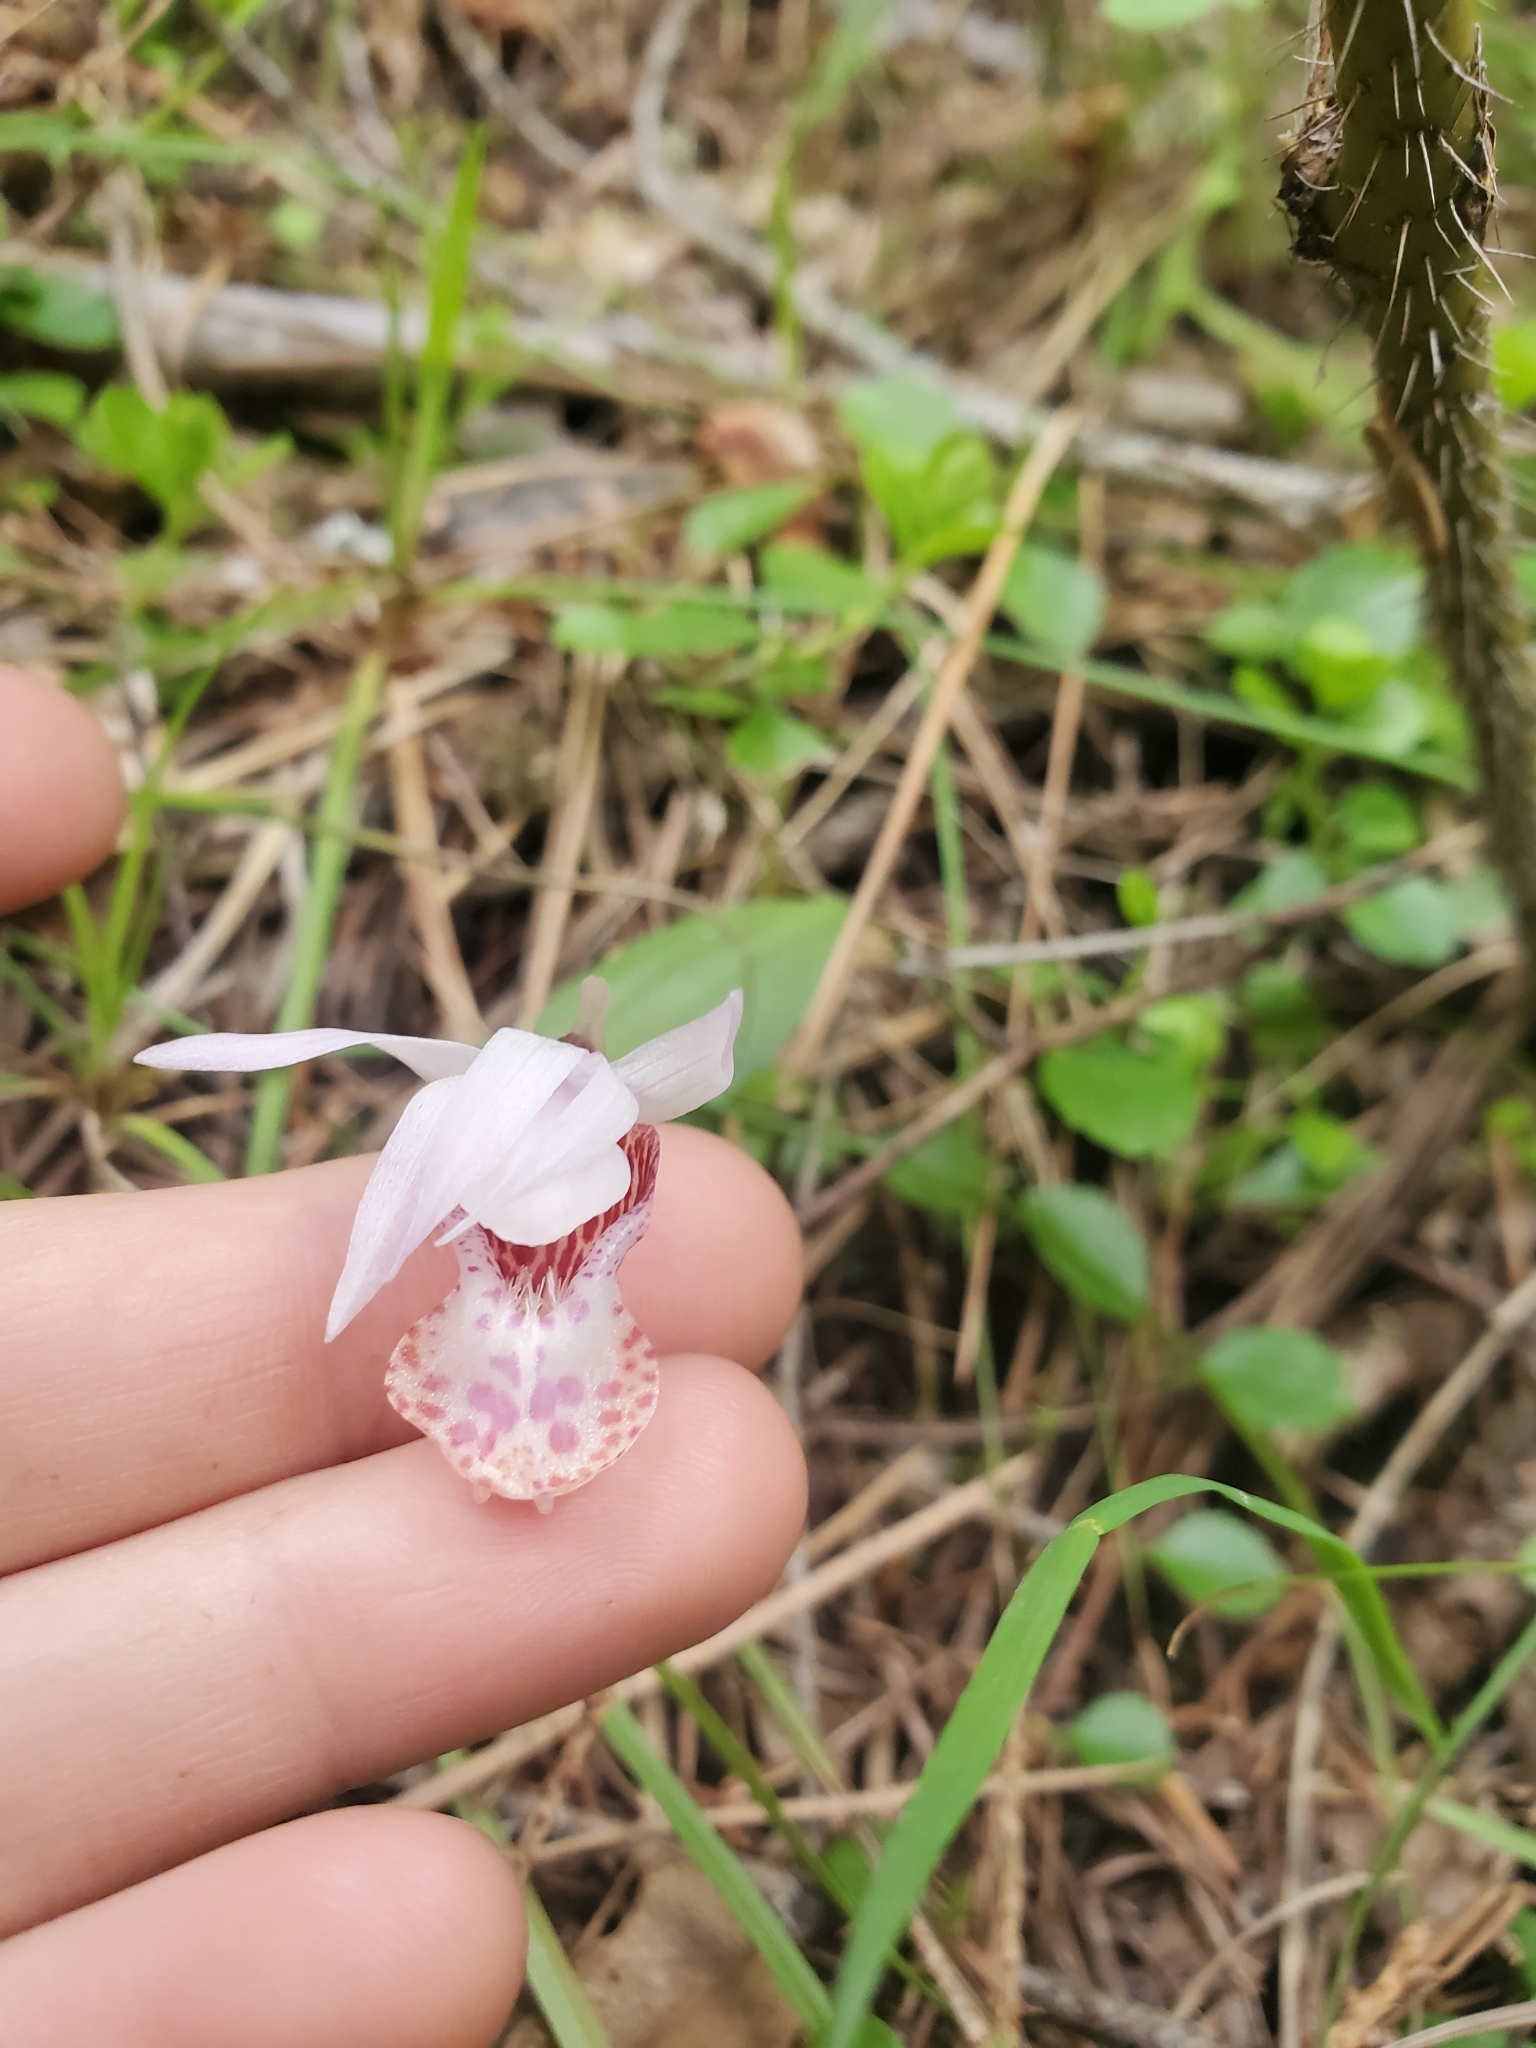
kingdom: Plantae
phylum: Tracheophyta
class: Liliopsida
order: Asparagales
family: Orchidaceae
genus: Calypso
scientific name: Calypso bulbosa
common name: Calypso
